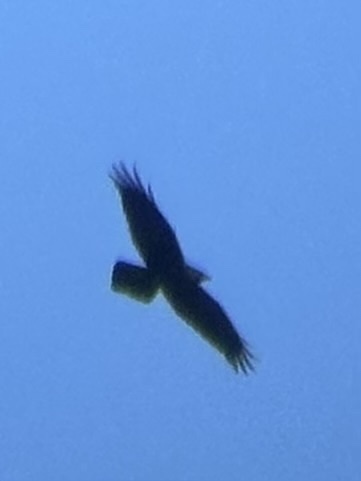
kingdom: Animalia
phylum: Chordata
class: Aves
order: Passeriformes
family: Corvidae
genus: Corvus
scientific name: Corvus corax
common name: Common raven
